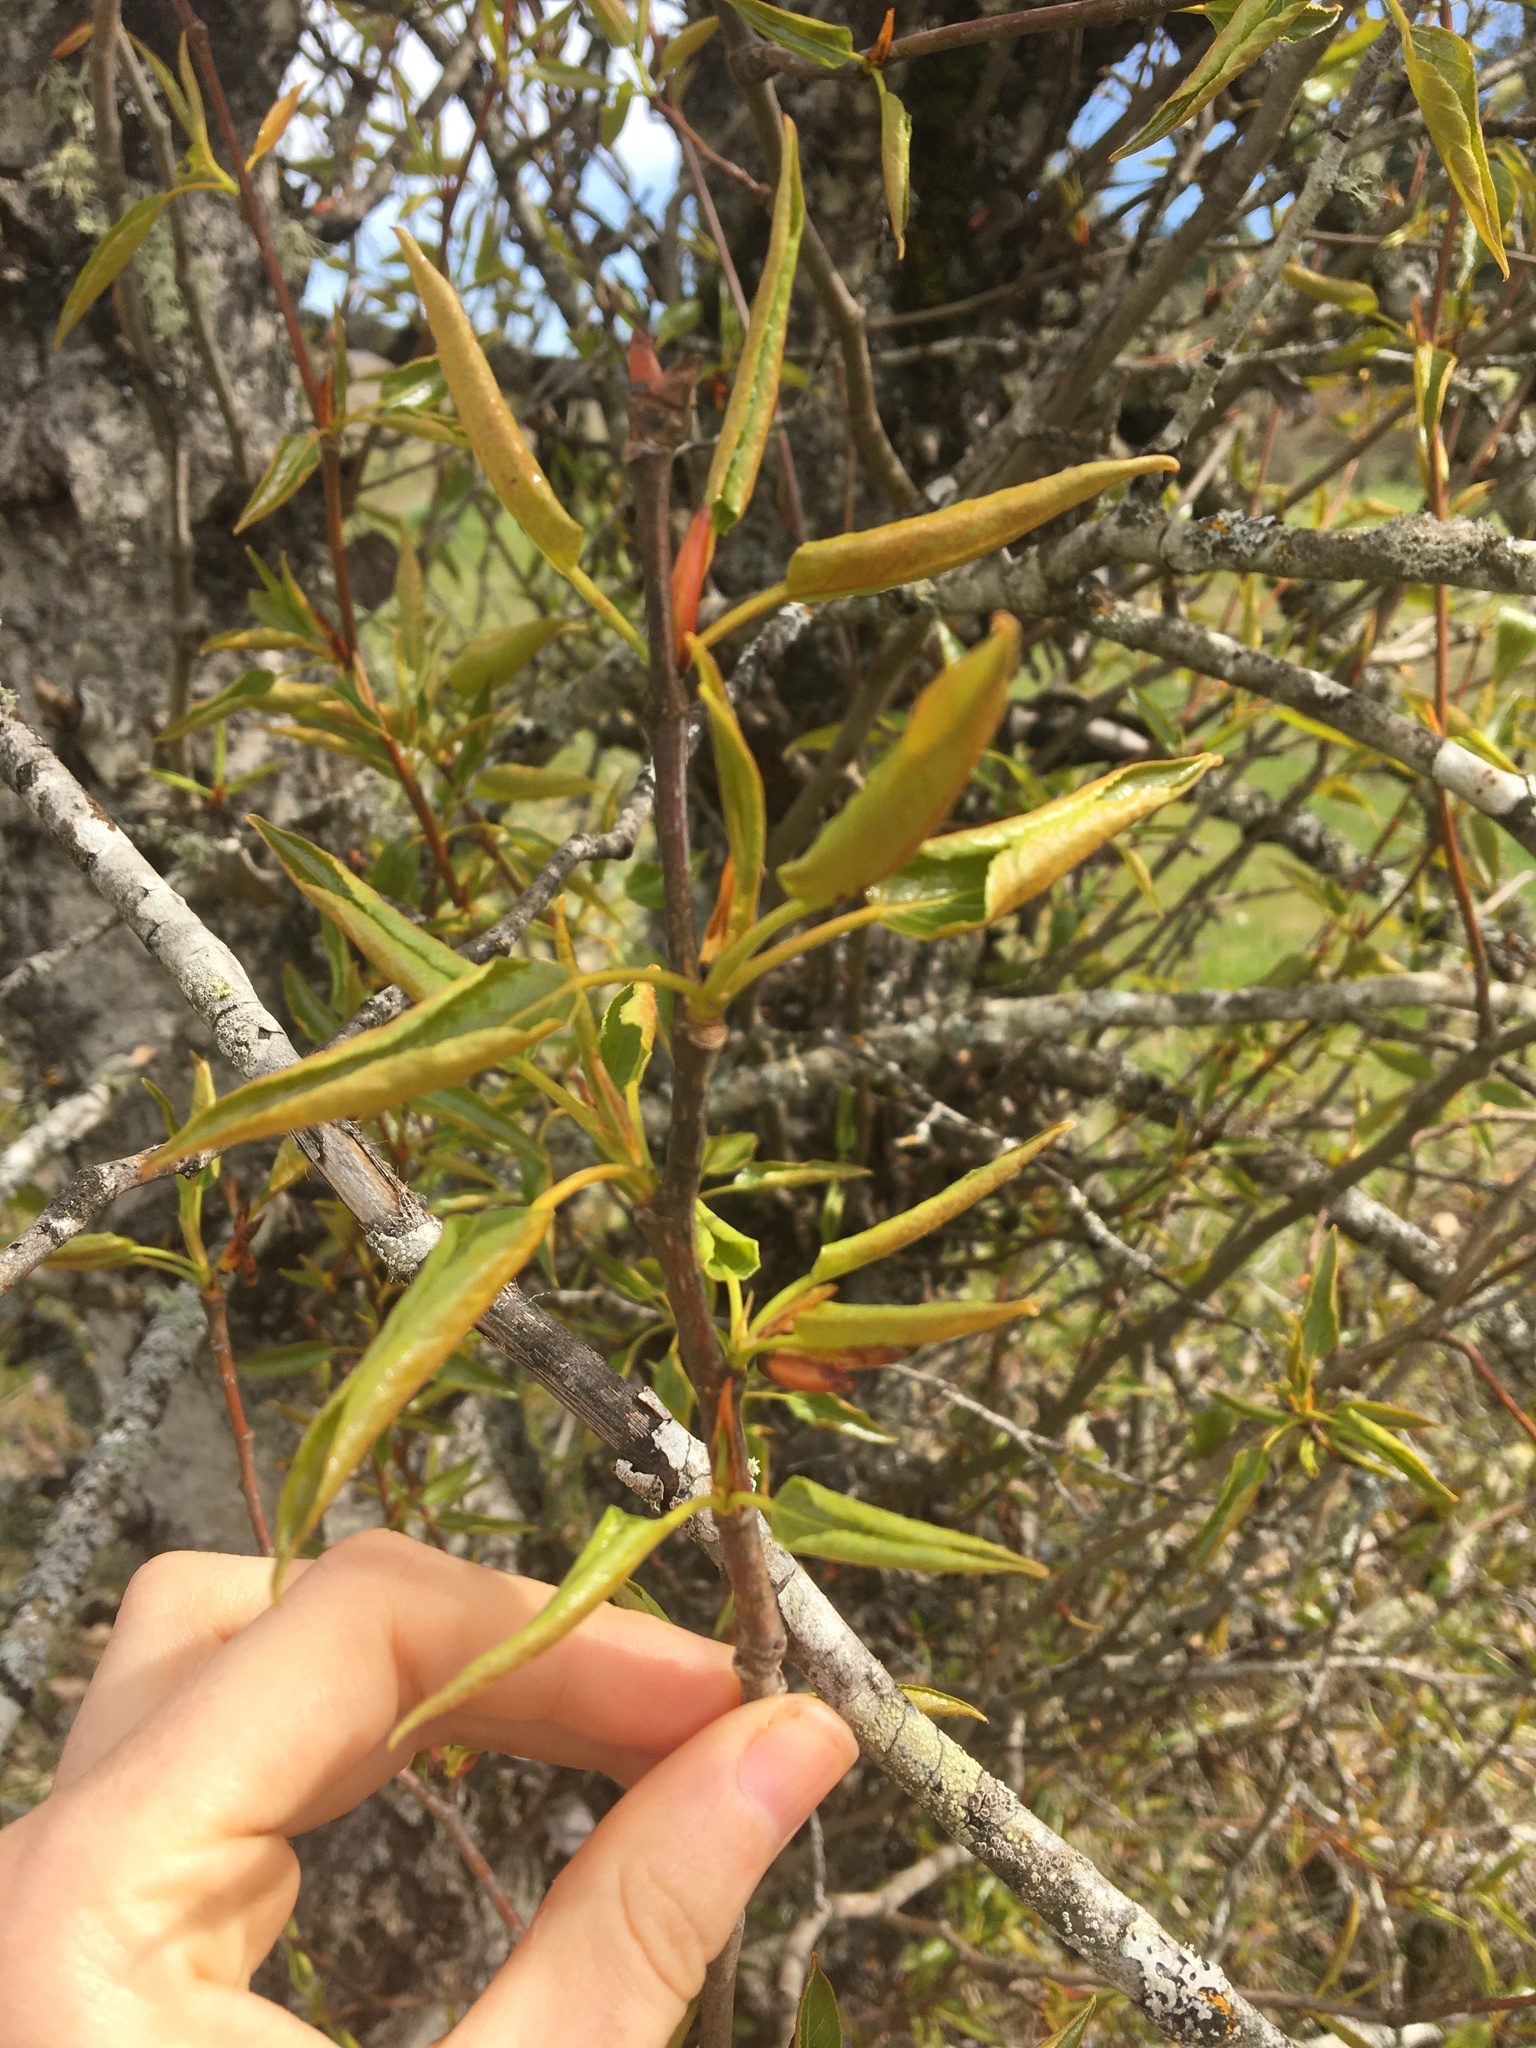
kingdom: Plantae
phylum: Tracheophyta
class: Magnoliopsida
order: Malpighiales
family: Salicaceae
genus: Populus
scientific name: Populus trichocarpa
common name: Black cottonwood
